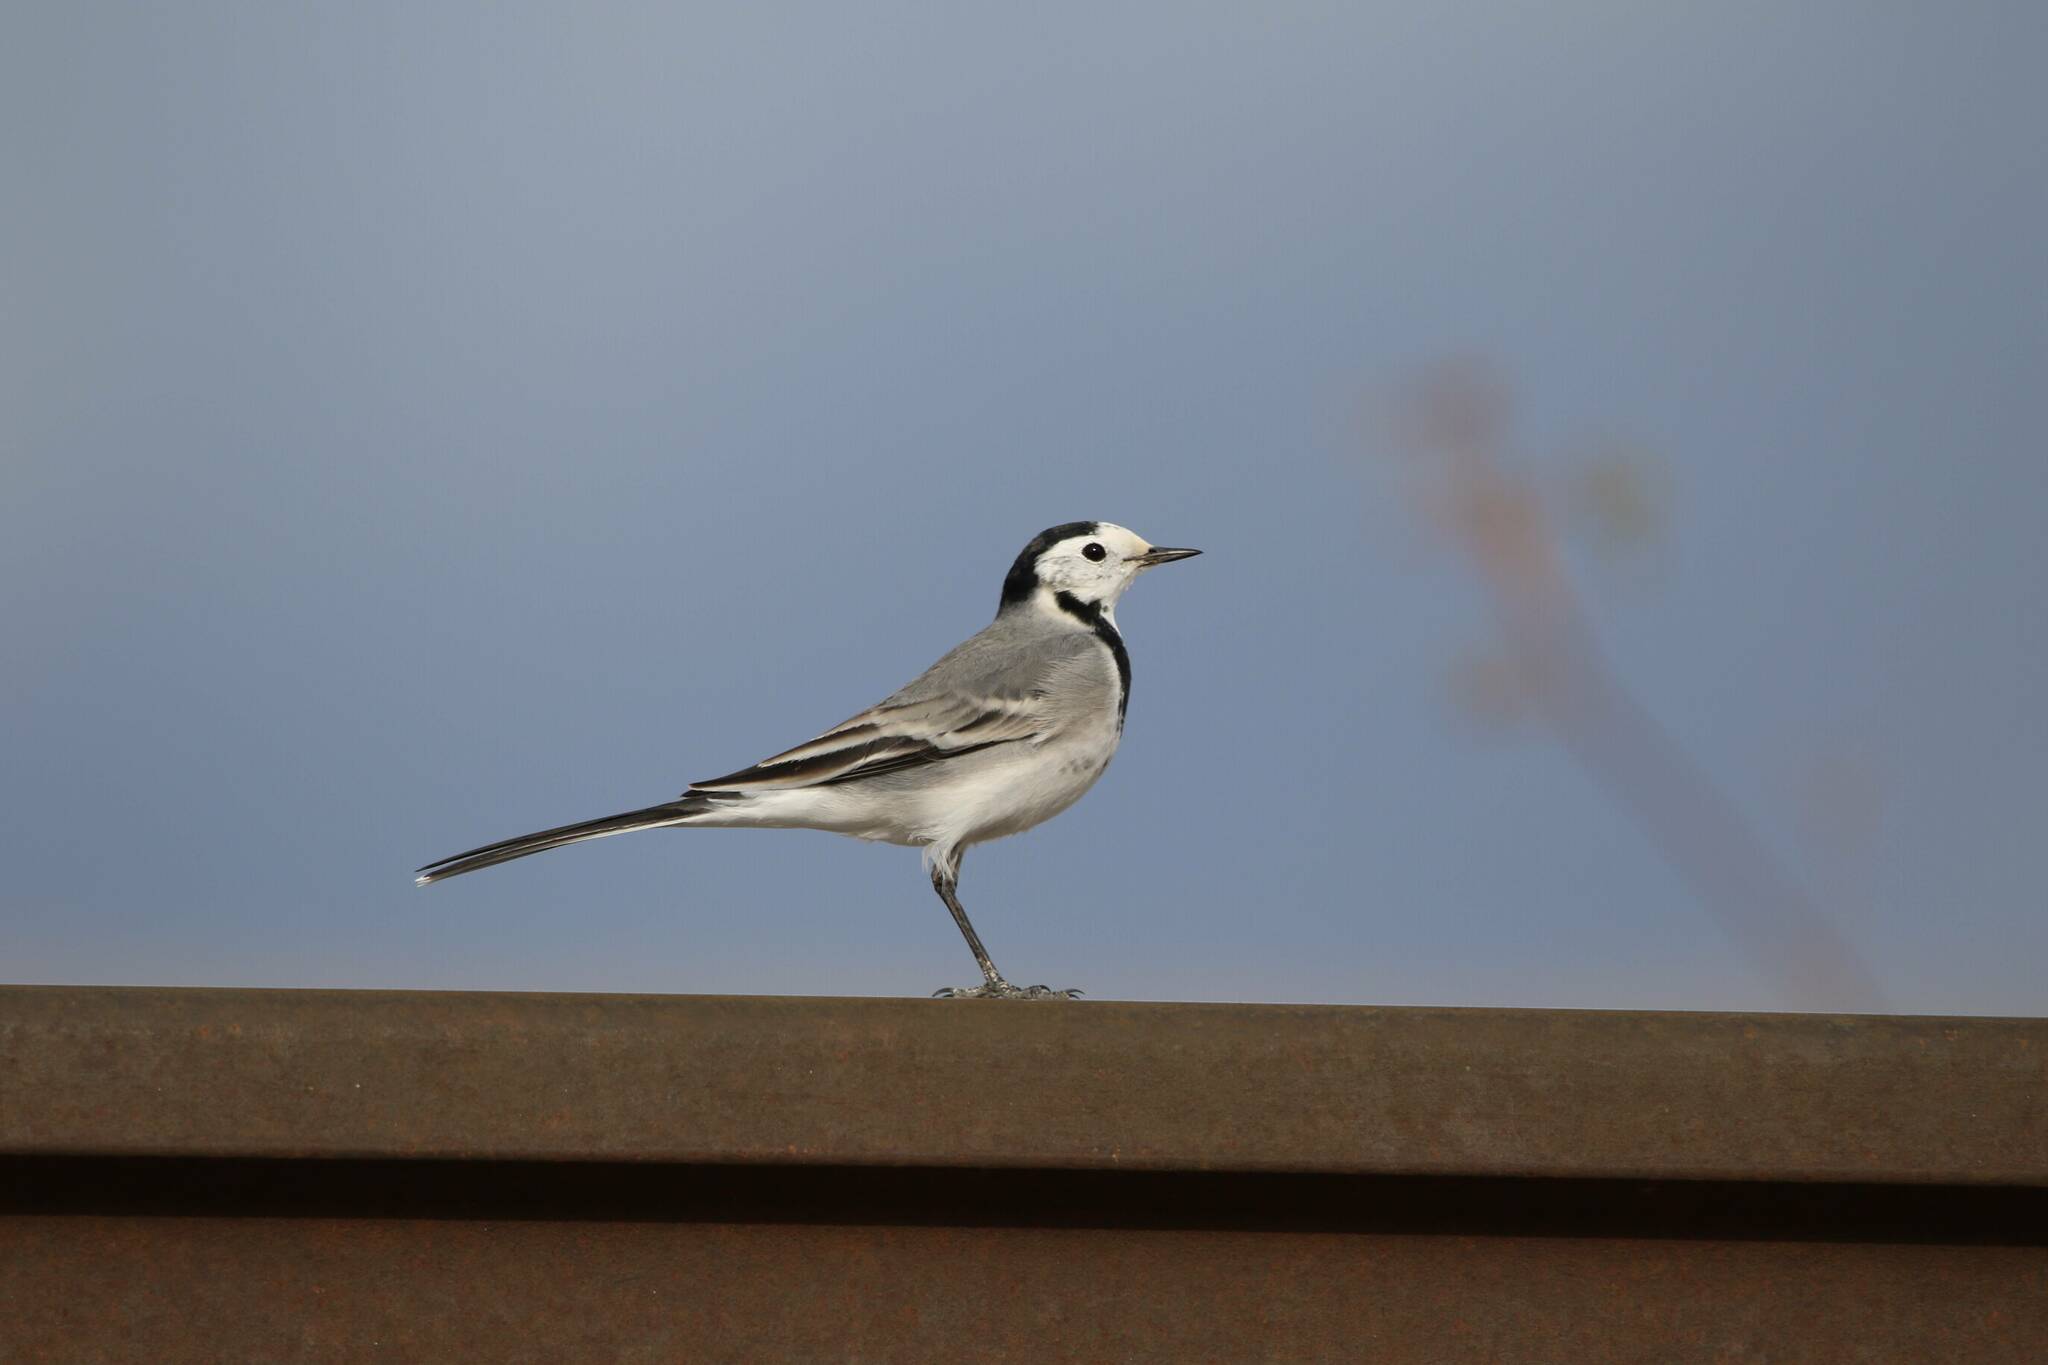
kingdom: Animalia
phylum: Chordata
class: Aves
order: Passeriformes
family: Motacillidae
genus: Motacilla
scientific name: Motacilla alba
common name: White wagtail
